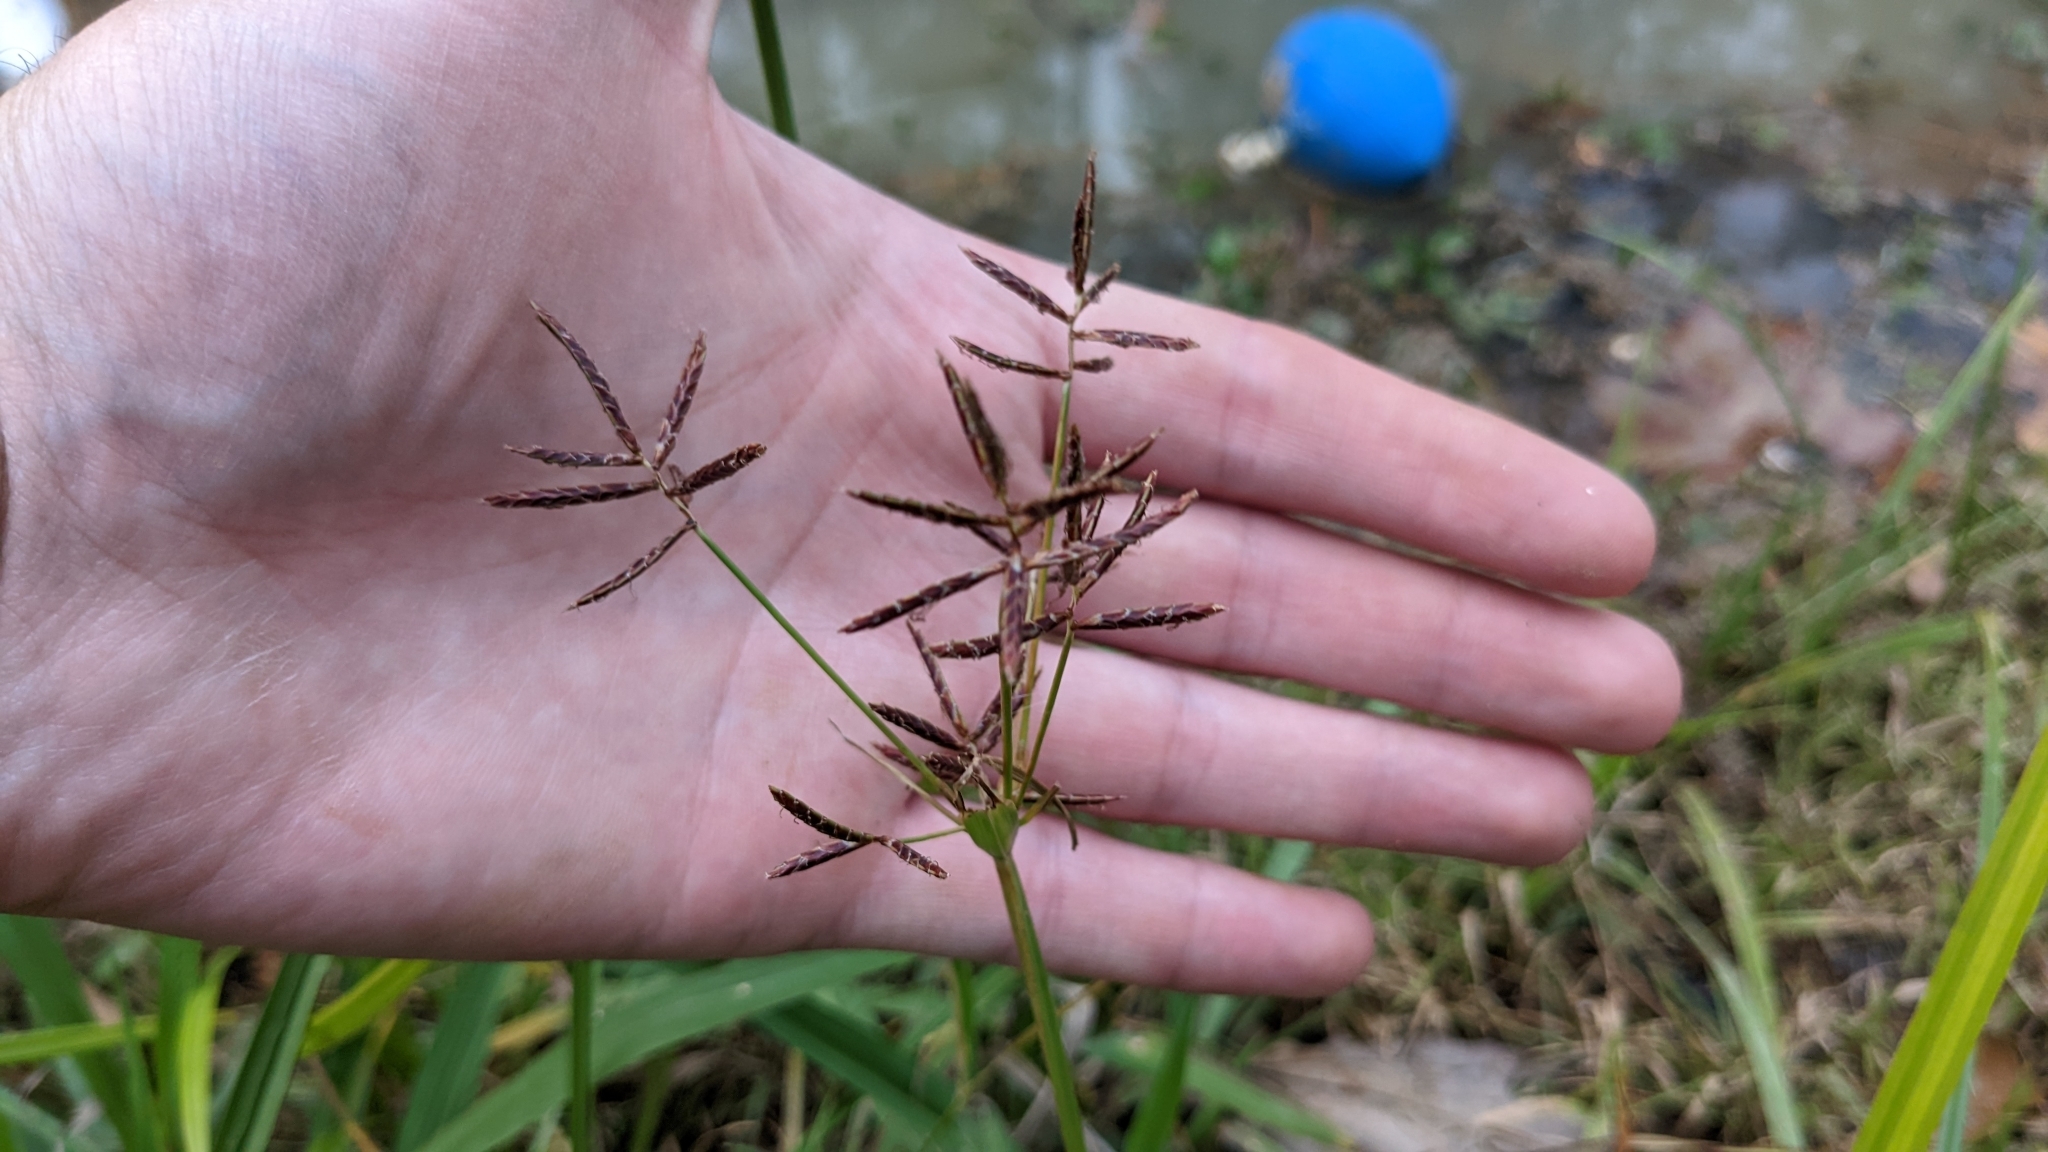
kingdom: Plantae
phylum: Tracheophyta
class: Liliopsida
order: Poales
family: Cyperaceae
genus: Cyperus
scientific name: Cyperus rotundus
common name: Nutgrass
